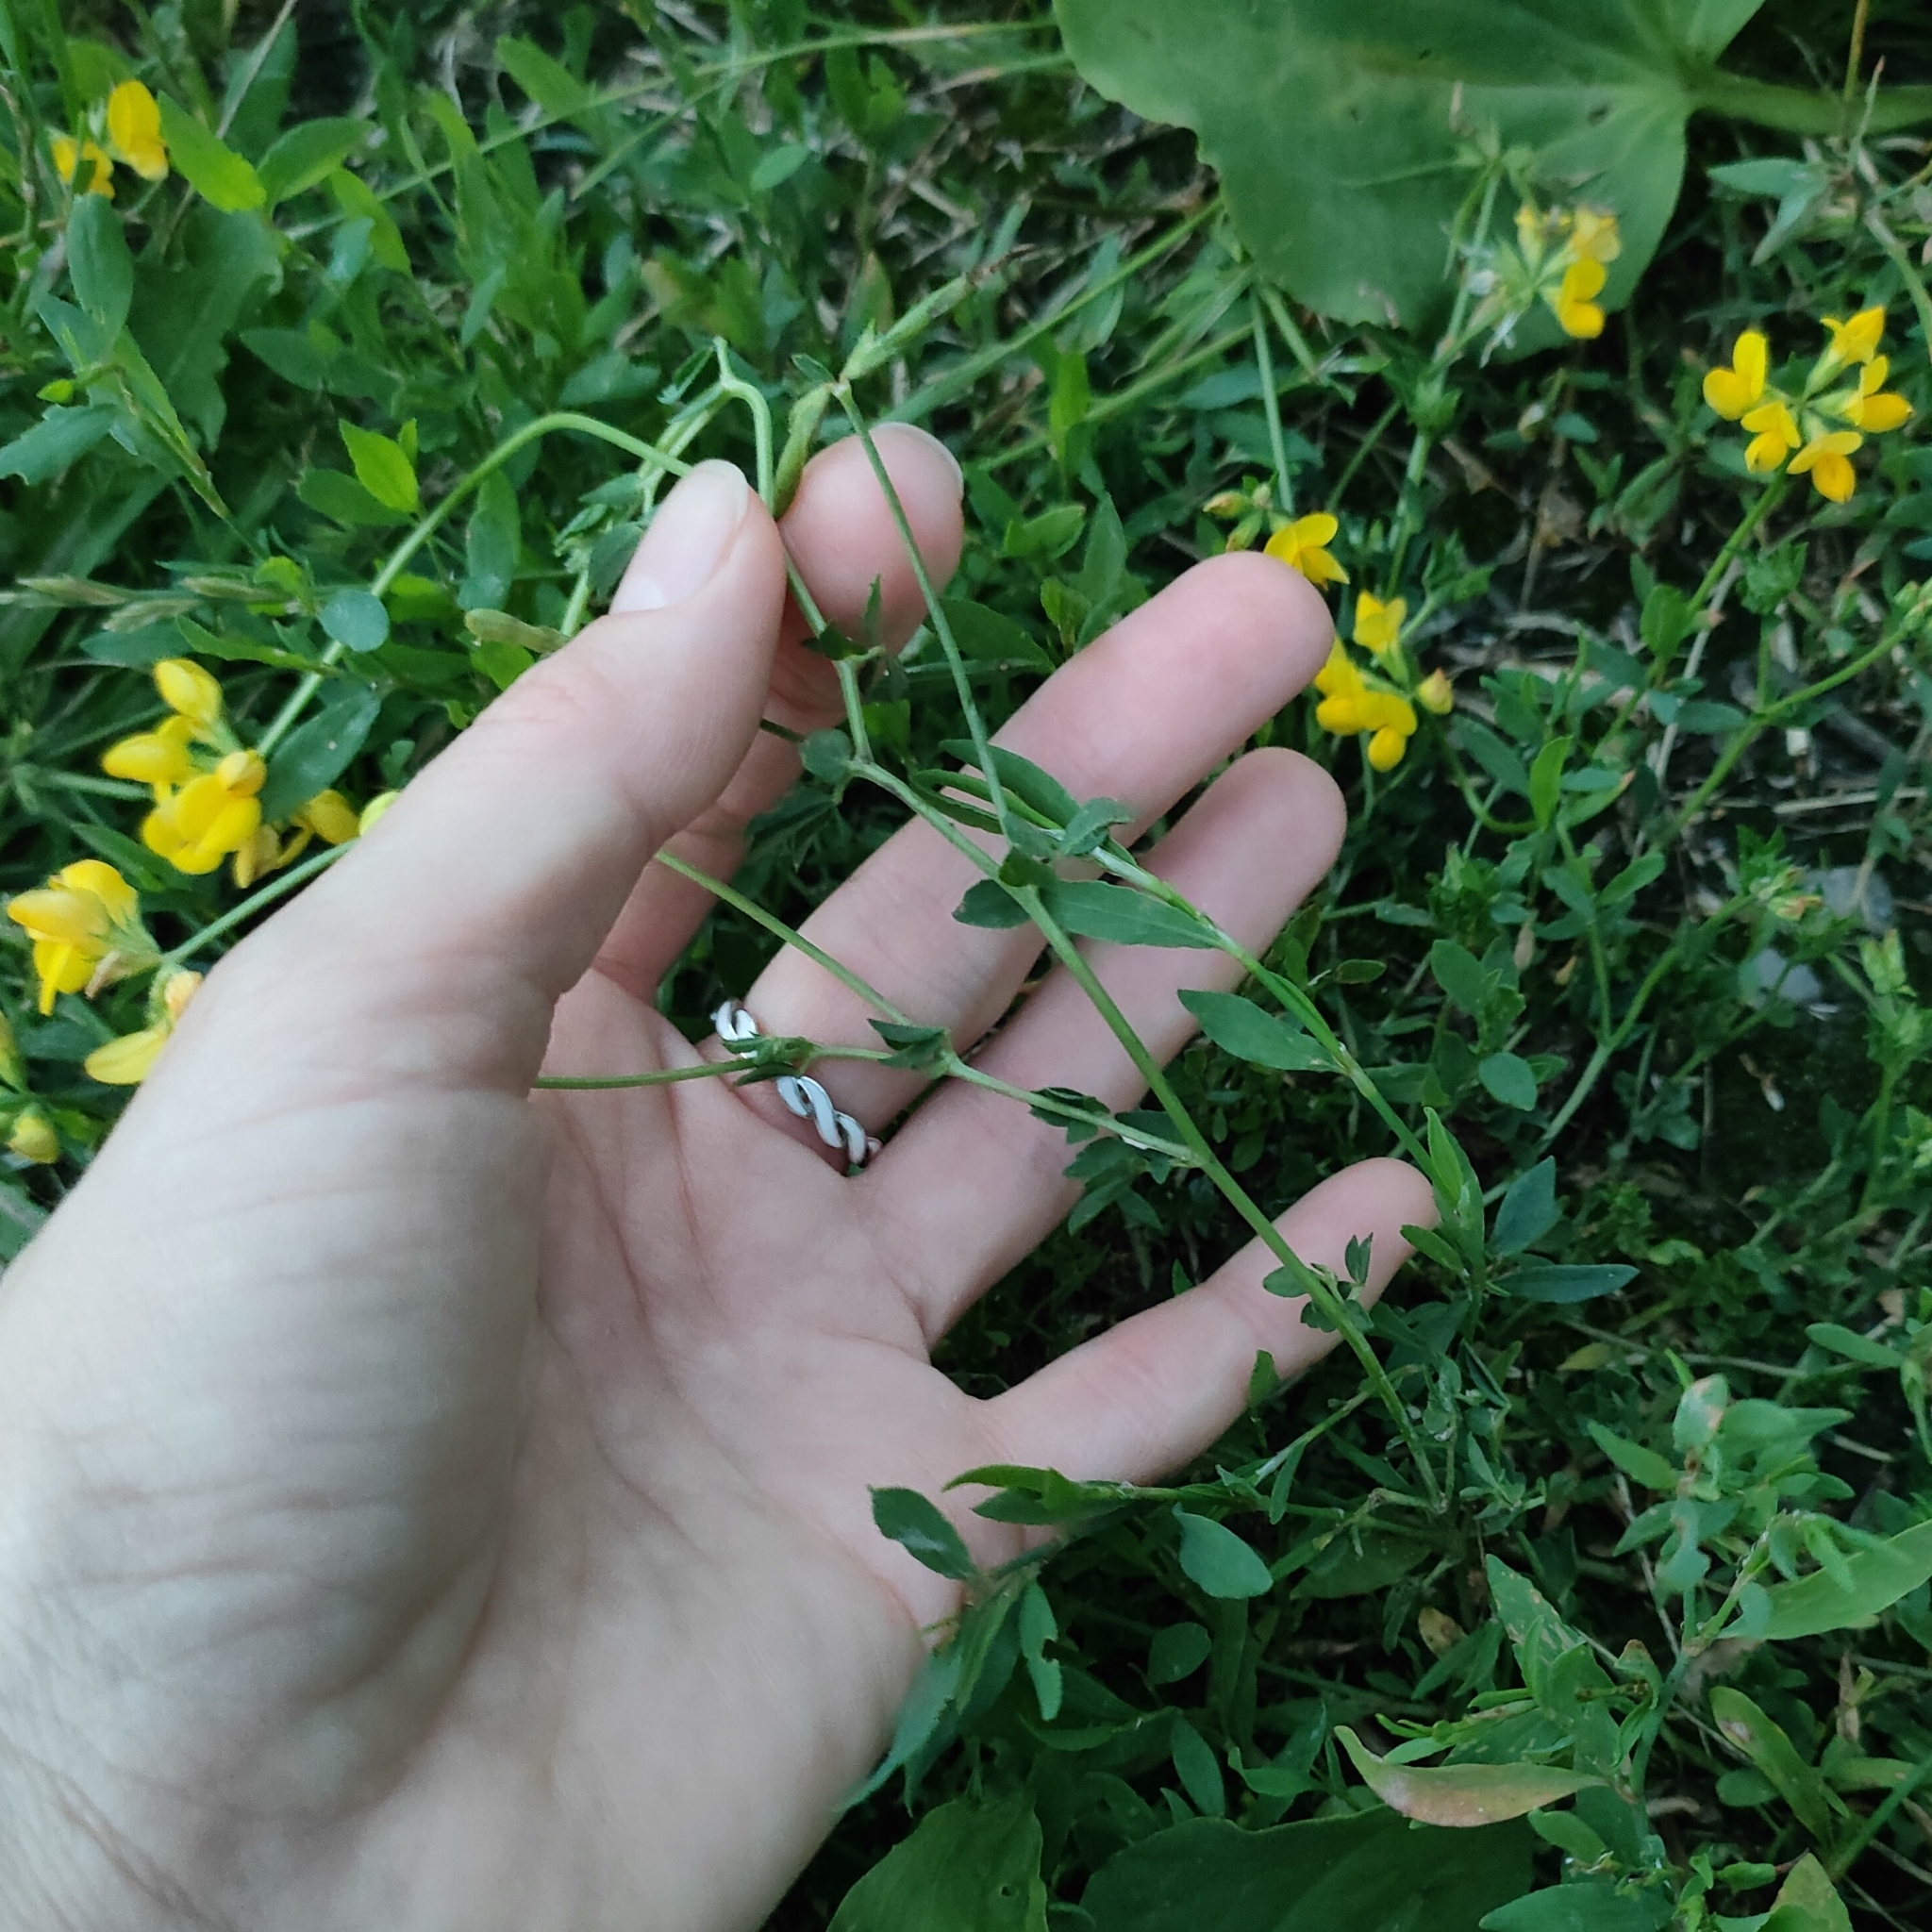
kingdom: Plantae
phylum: Tracheophyta
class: Magnoliopsida
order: Fabales
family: Fabaceae
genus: Lotus
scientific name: Lotus corniculatus
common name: Common bird's-foot-trefoil
